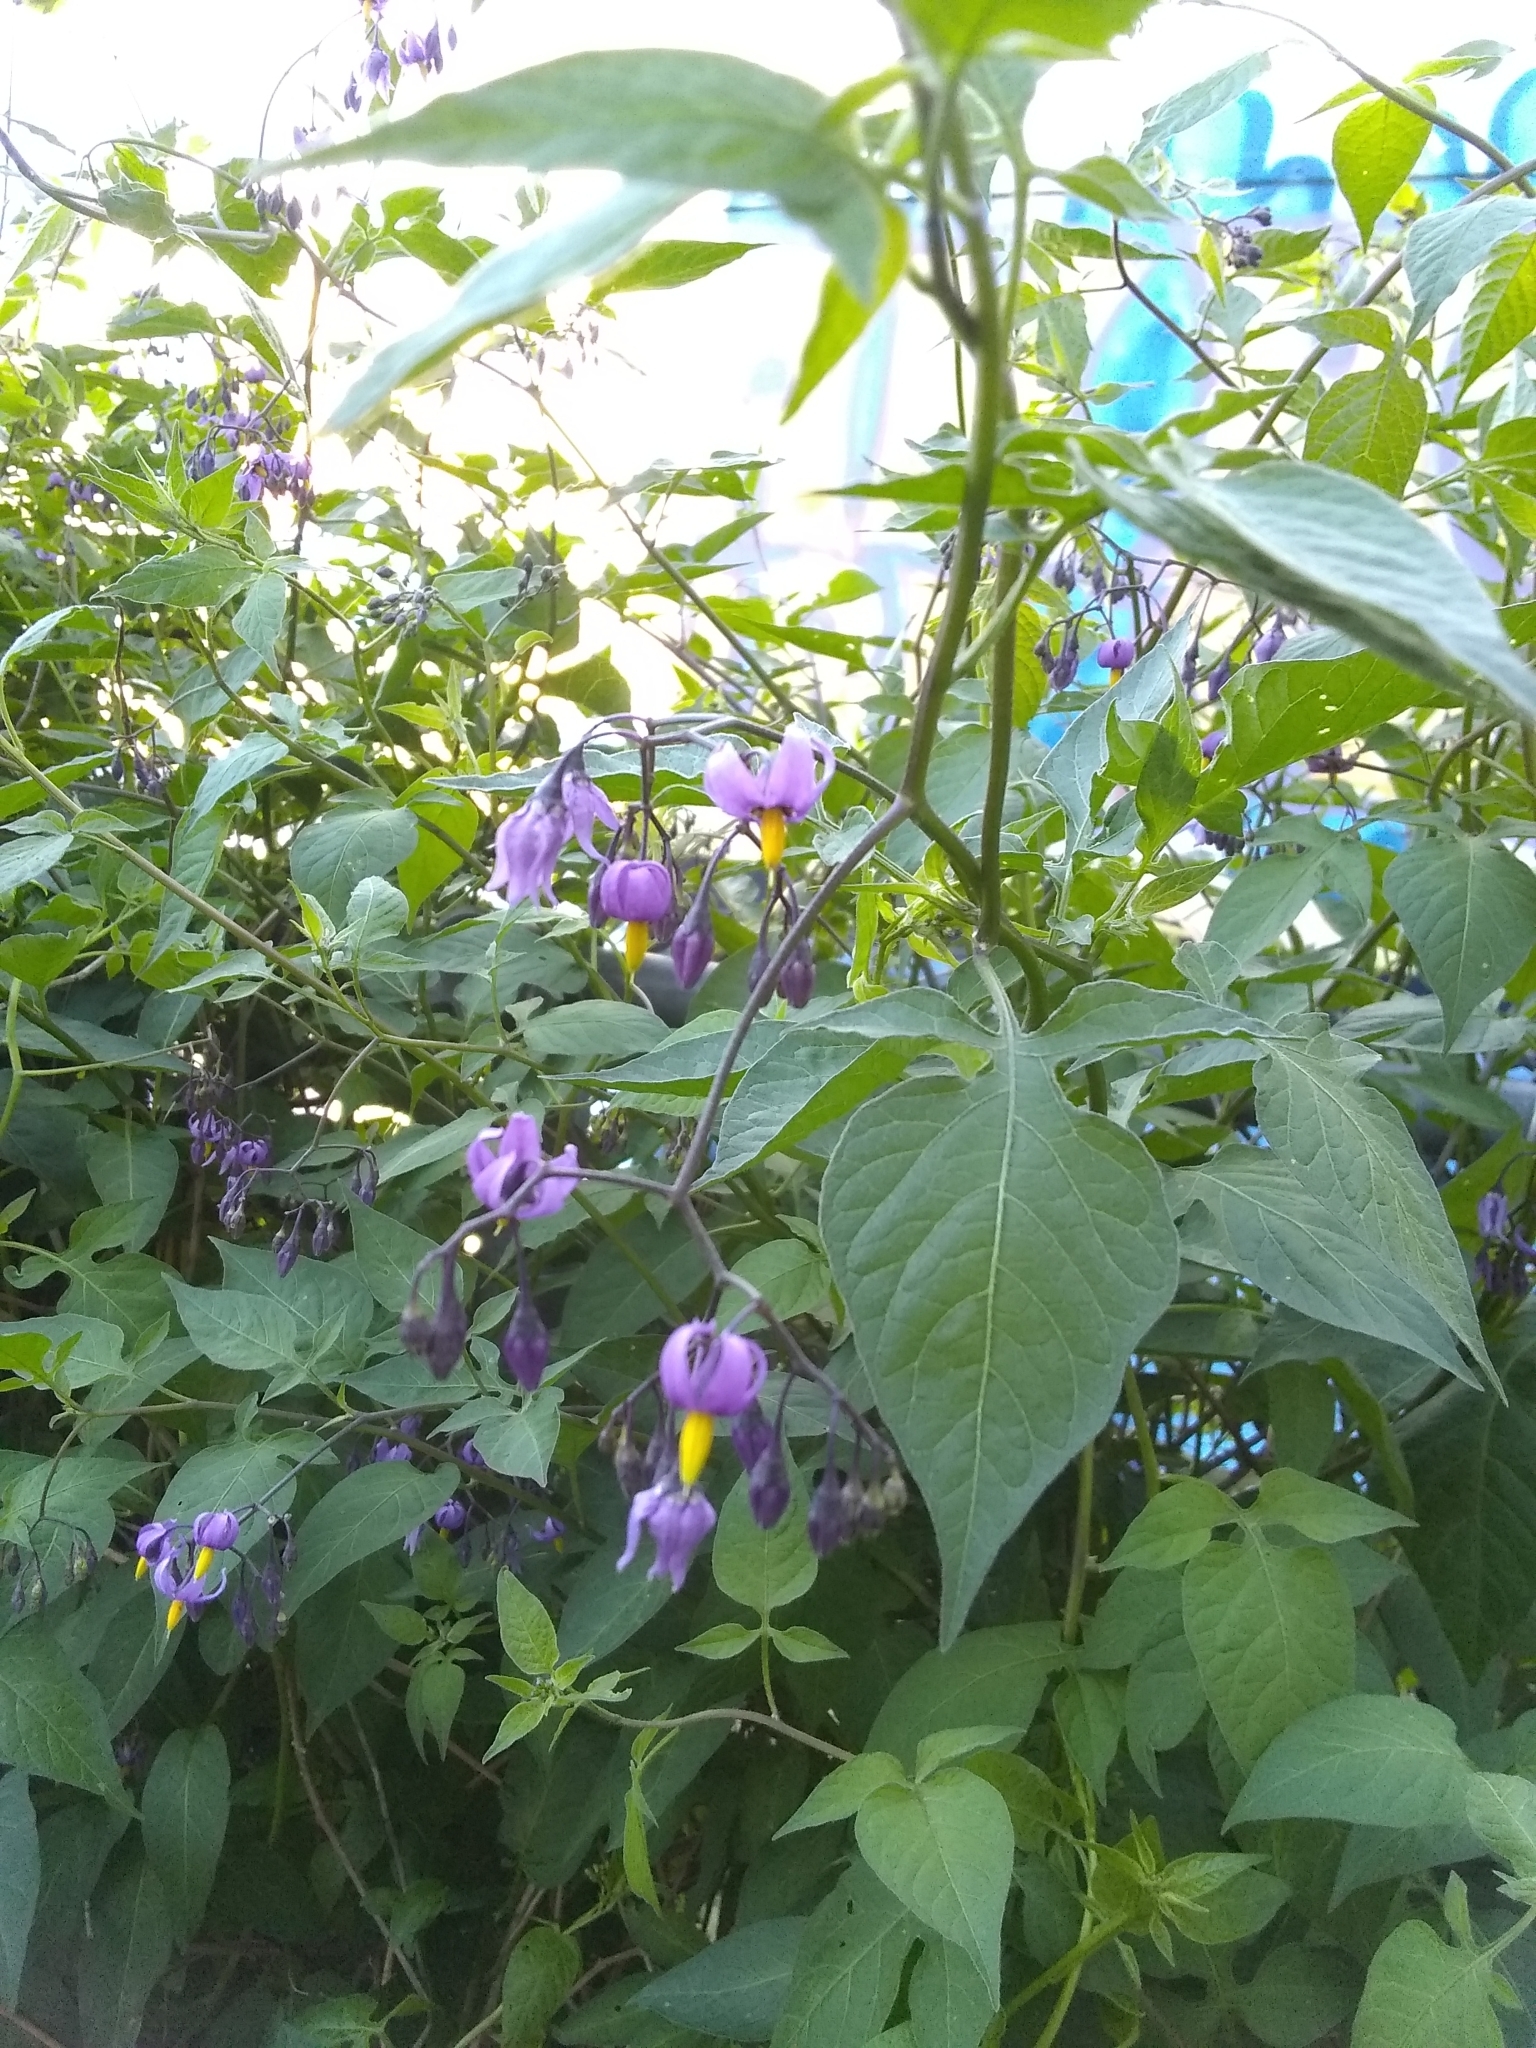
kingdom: Plantae
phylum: Tracheophyta
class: Magnoliopsida
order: Solanales
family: Solanaceae
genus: Solanum
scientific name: Solanum dulcamara
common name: Climbing nightshade
